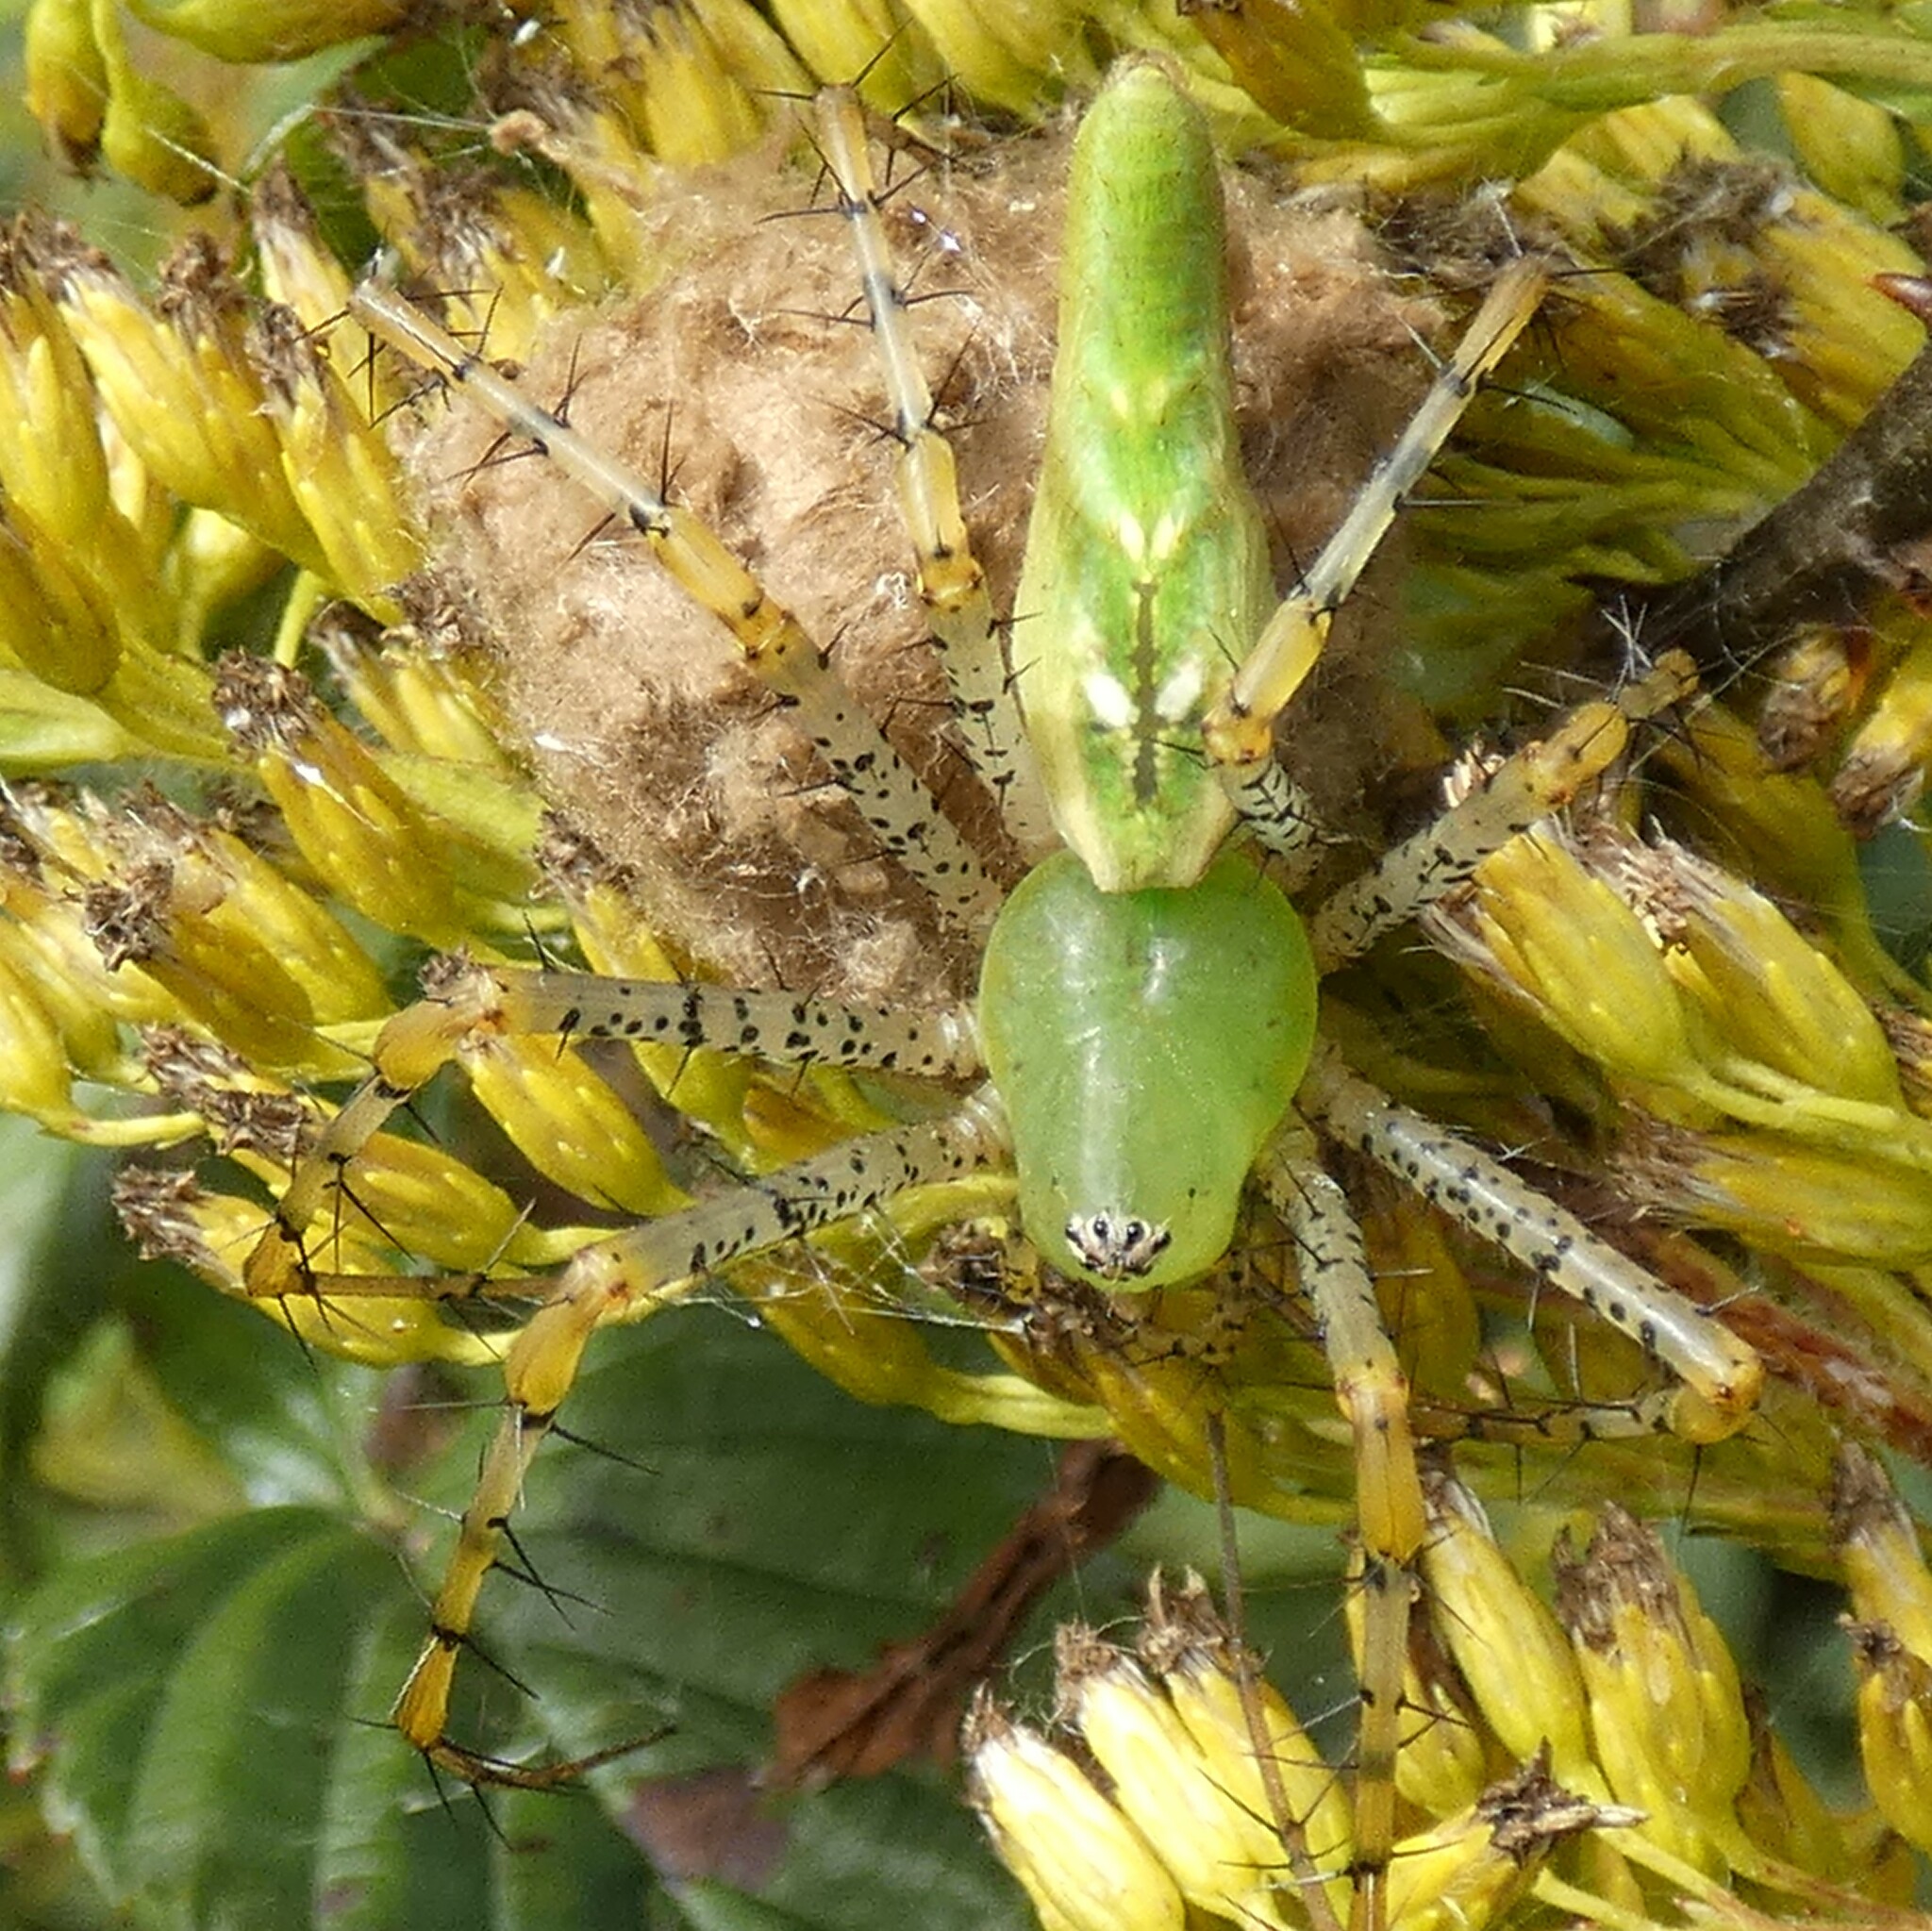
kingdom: Animalia
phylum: Arthropoda
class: Arachnida
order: Araneae
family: Oxyopidae
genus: Peucetia
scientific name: Peucetia viridans
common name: Lynx spiders
